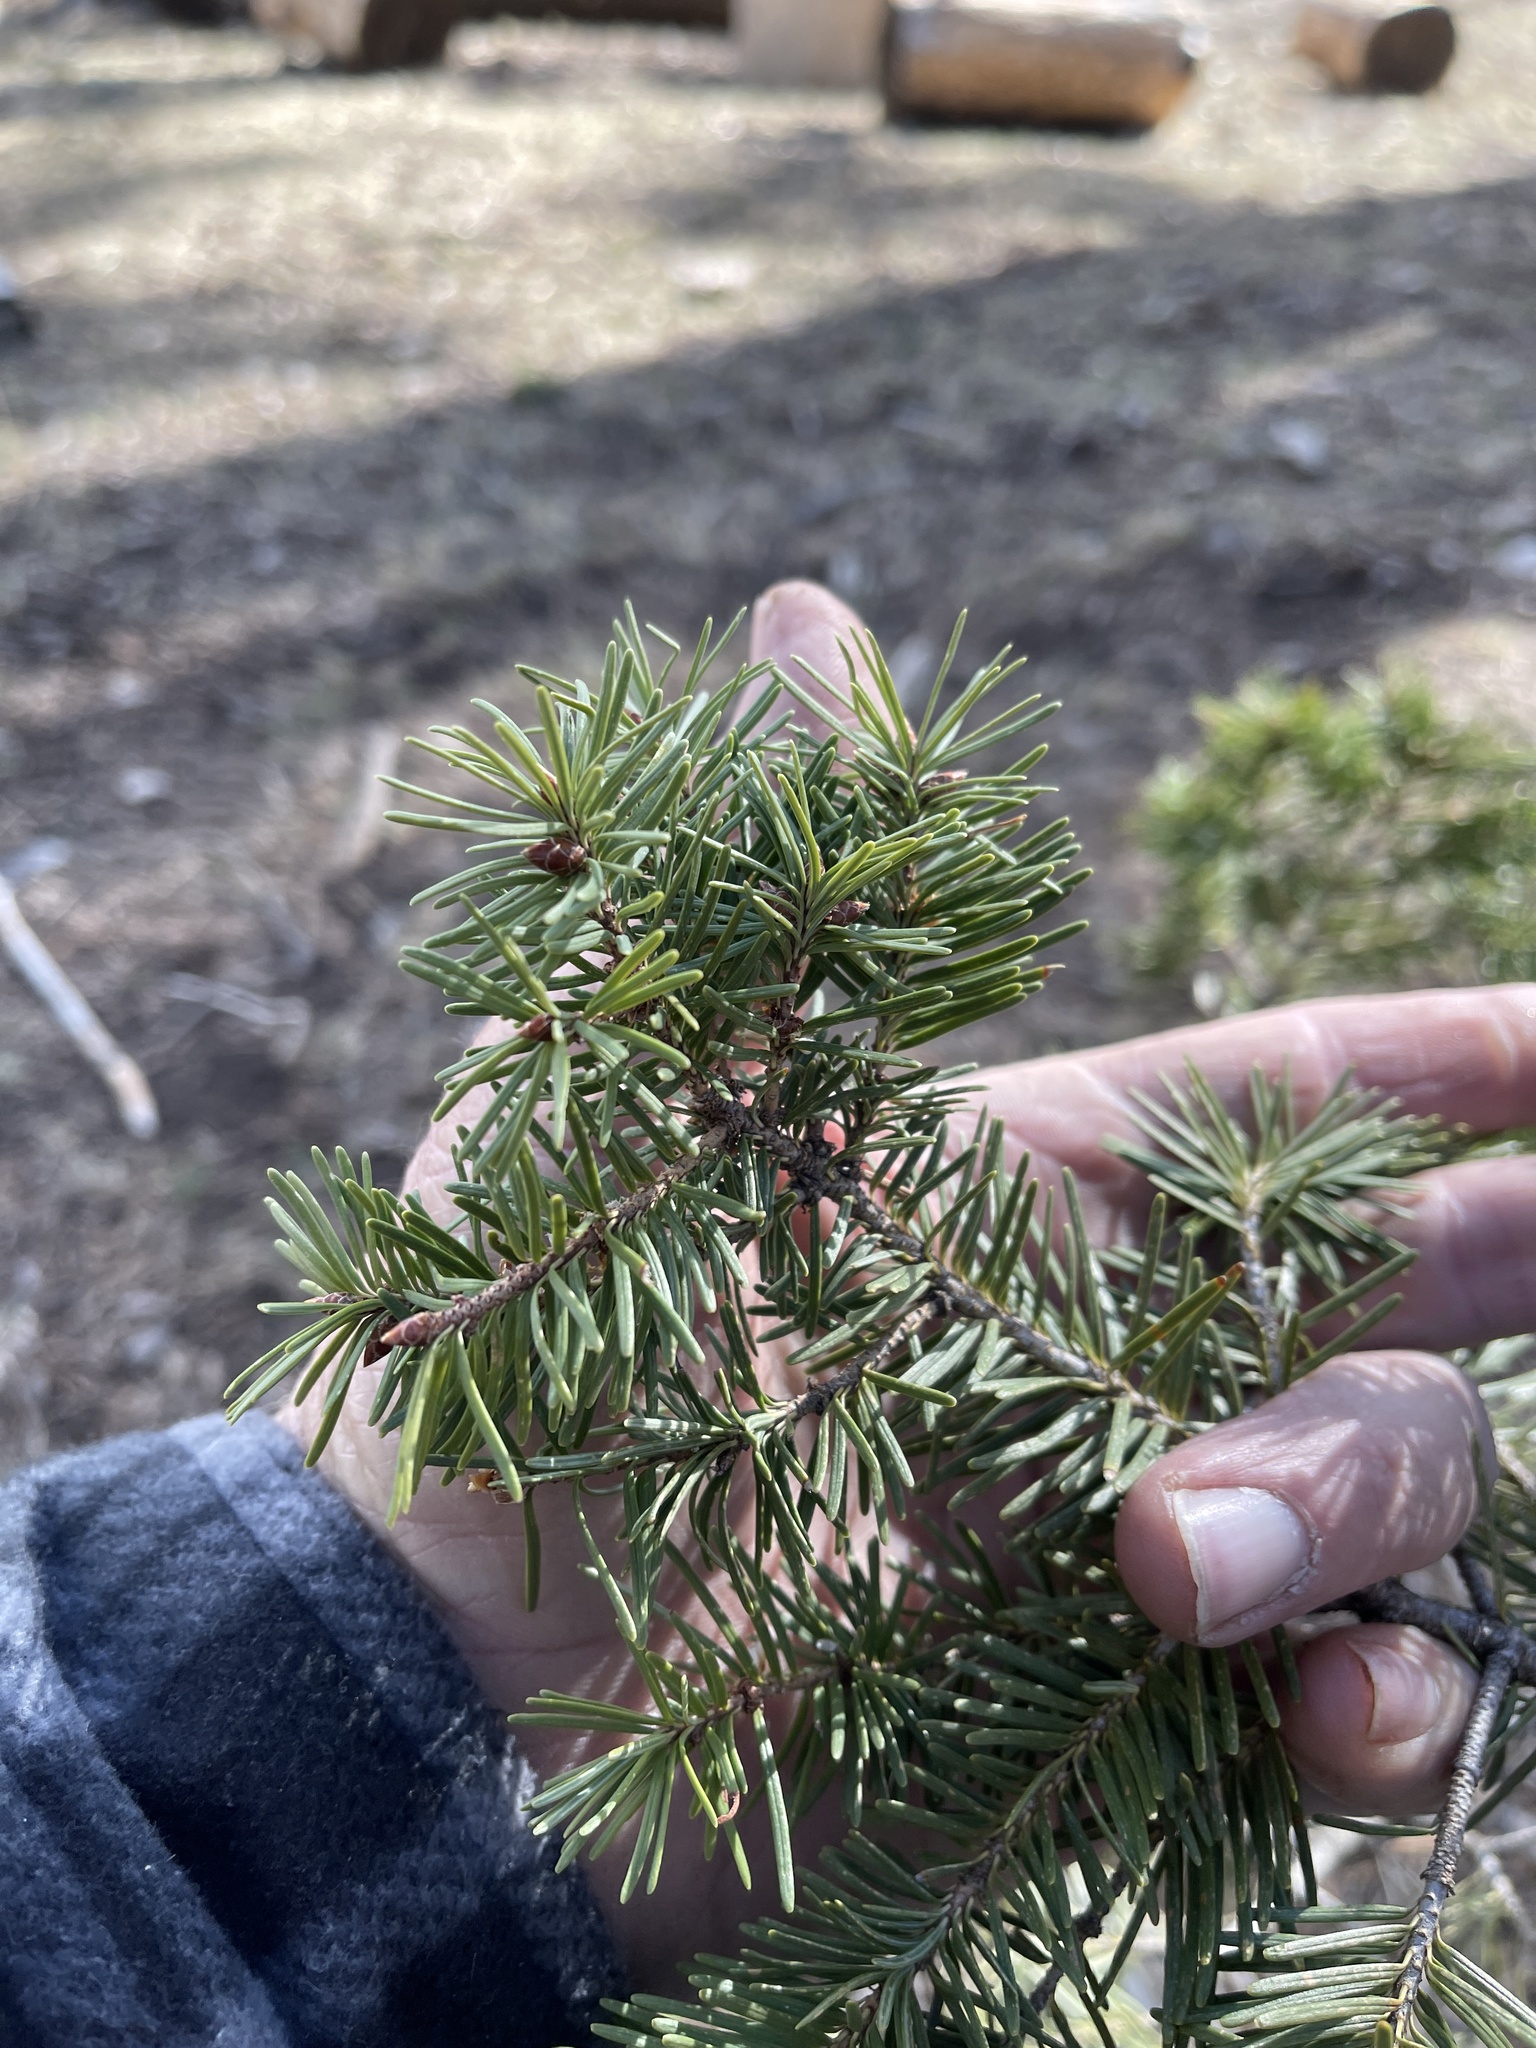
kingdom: Plantae
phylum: Tracheophyta
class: Pinopsida
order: Pinales
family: Pinaceae
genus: Pseudotsuga
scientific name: Pseudotsuga menziesii
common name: Douglas fir
